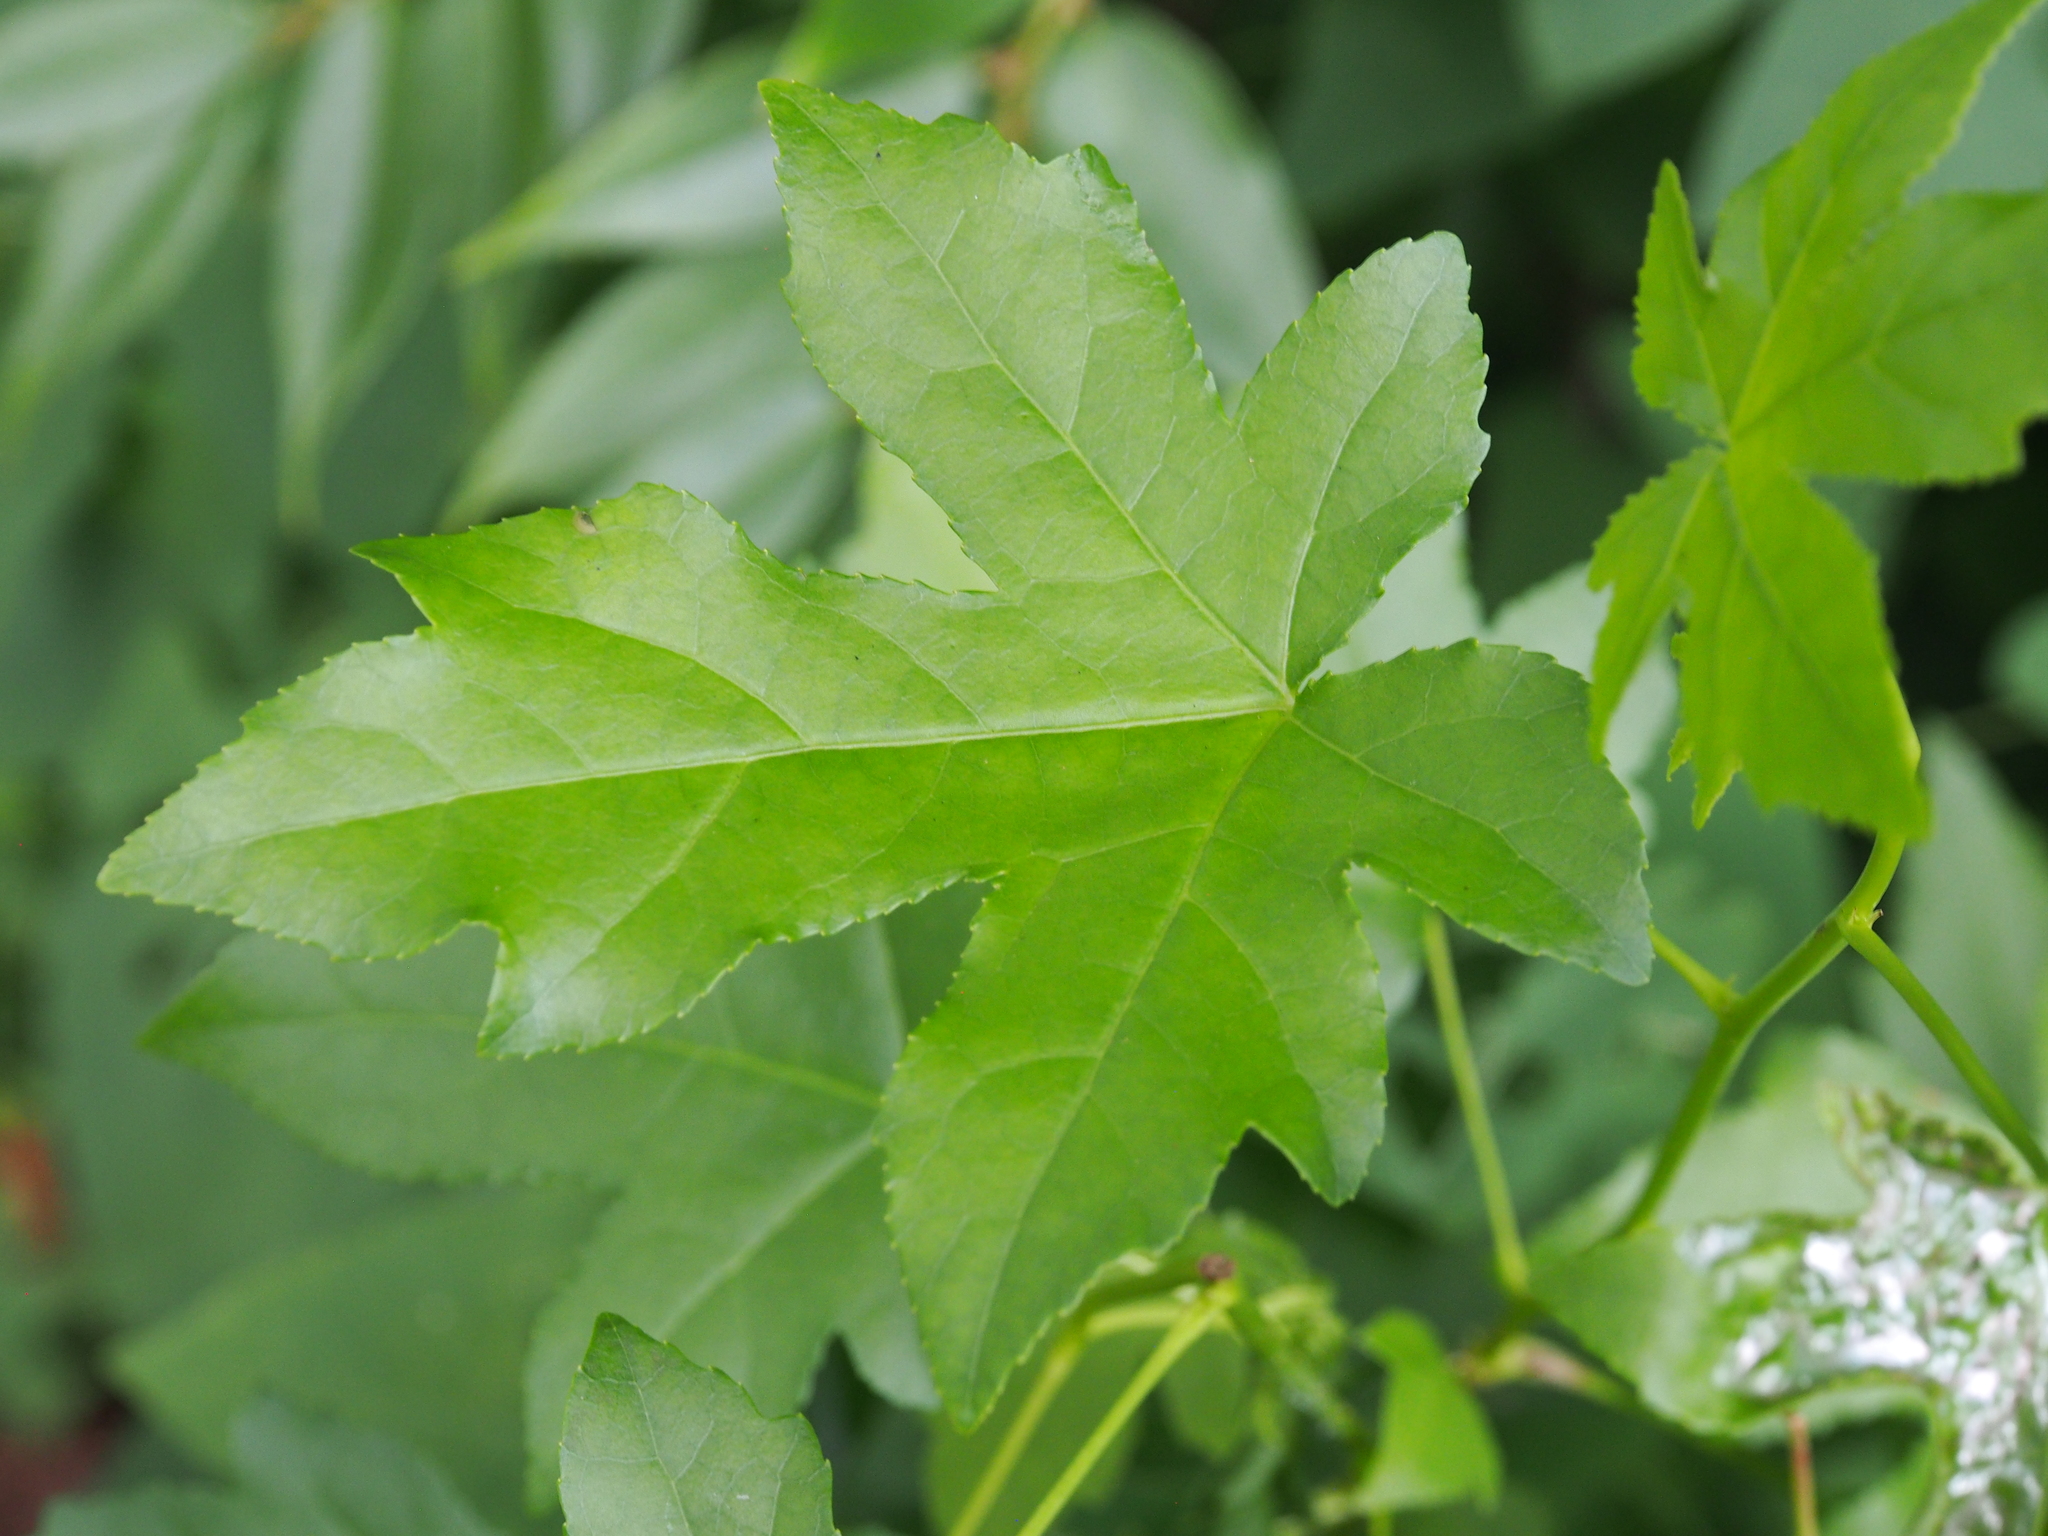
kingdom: Animalia
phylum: Arthropoda
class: Insecta
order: Lepidoptera
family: Gracillariidae
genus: Phyllocnistis
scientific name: Phyllocnistis liquidambarisella
